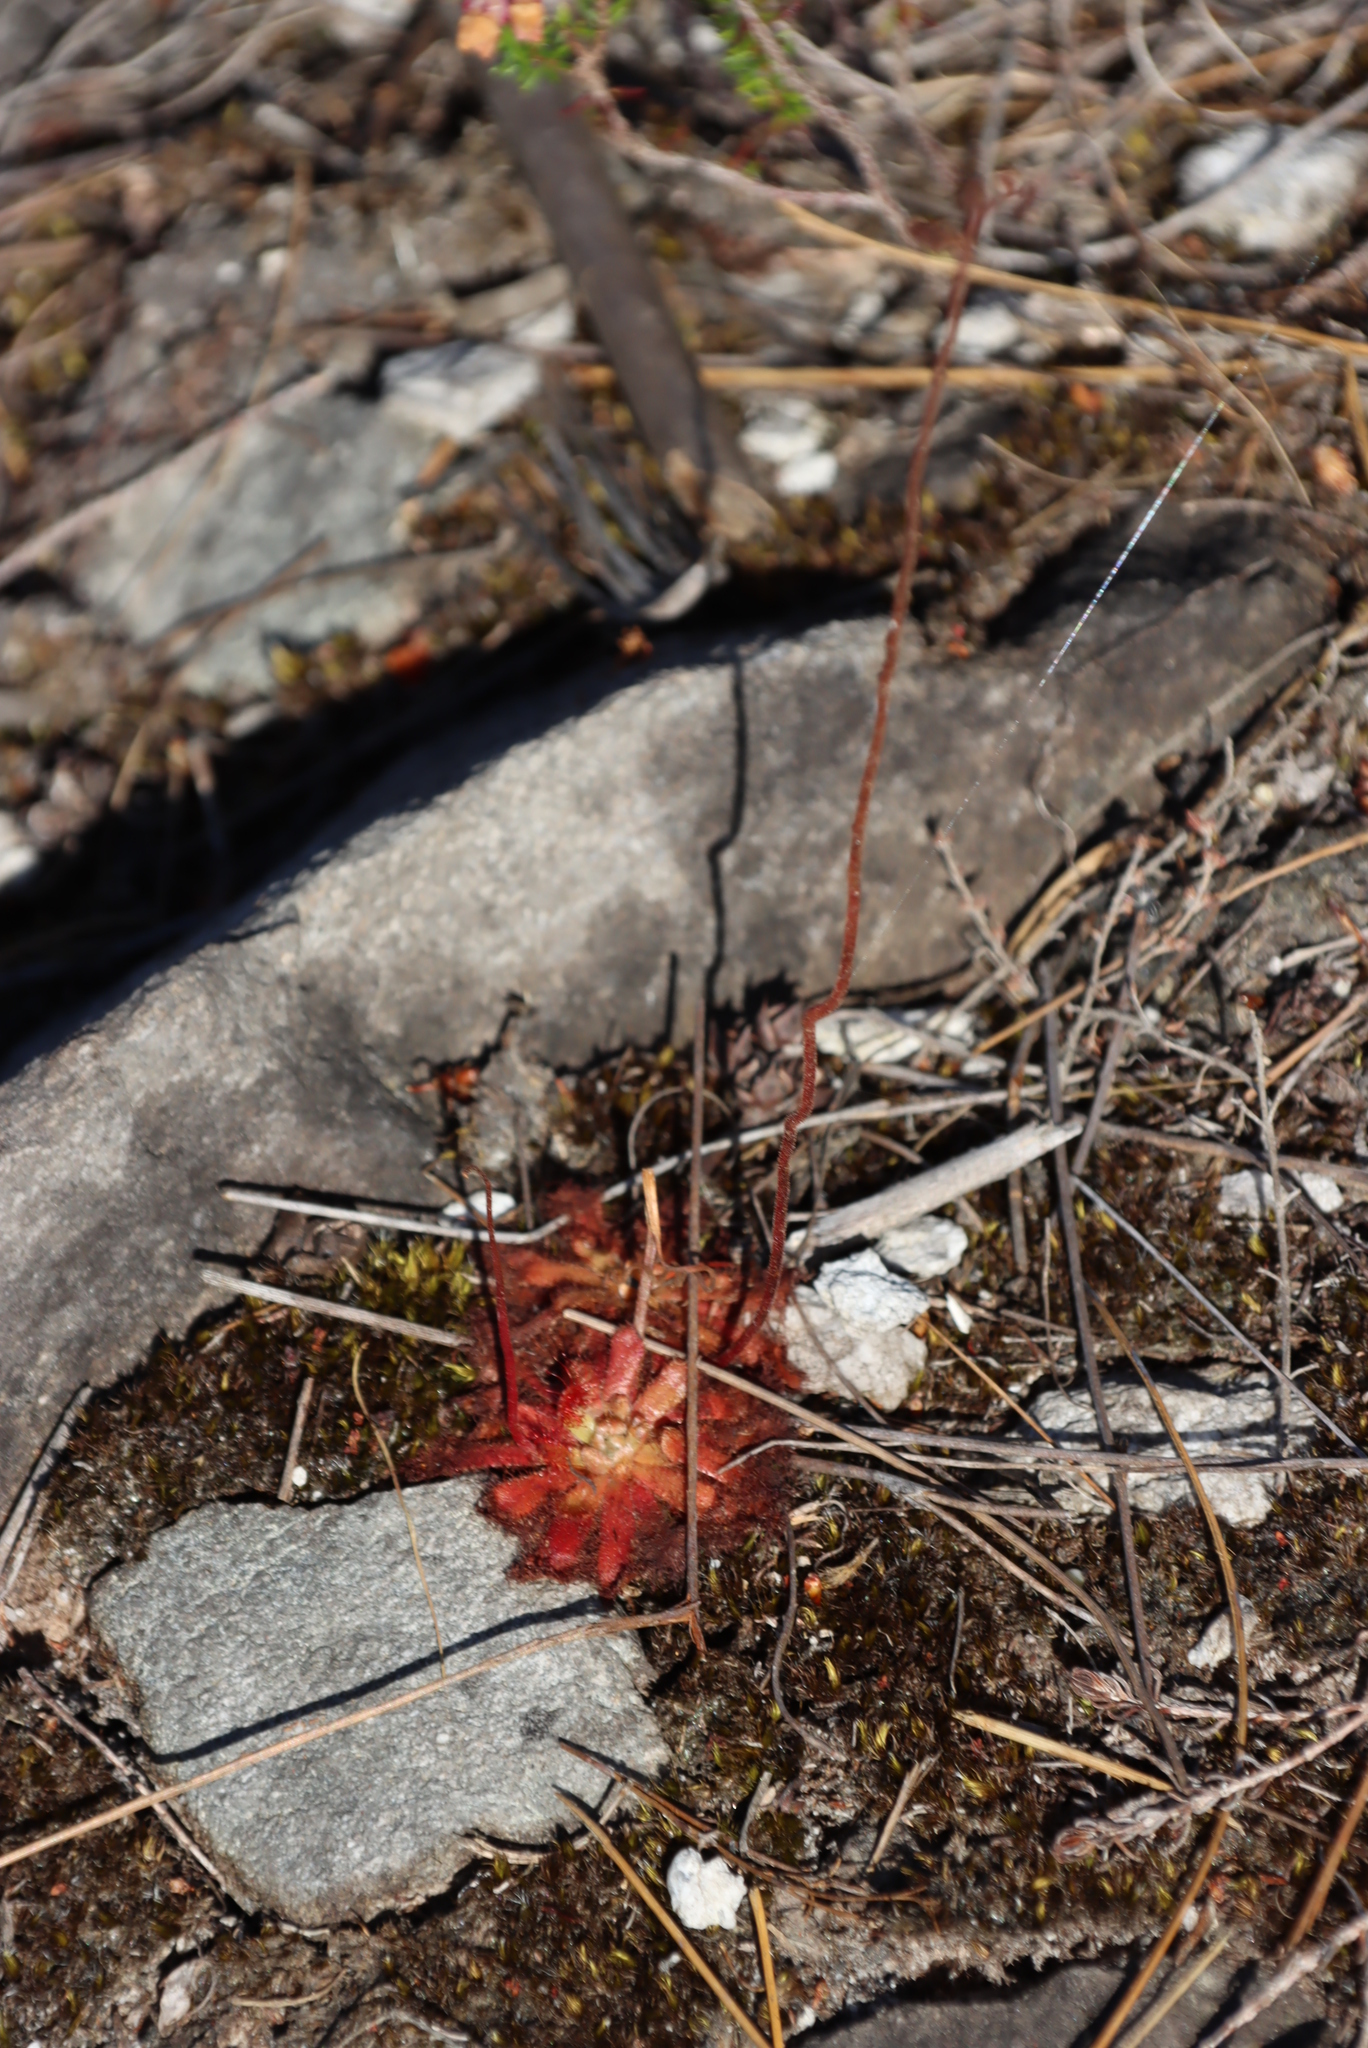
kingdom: Plantae
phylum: Tracheophyta
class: Magnoliopsida
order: Caryophyllales
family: Droseraceae
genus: Drosera
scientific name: Drosera aliciae
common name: Alice sundew
